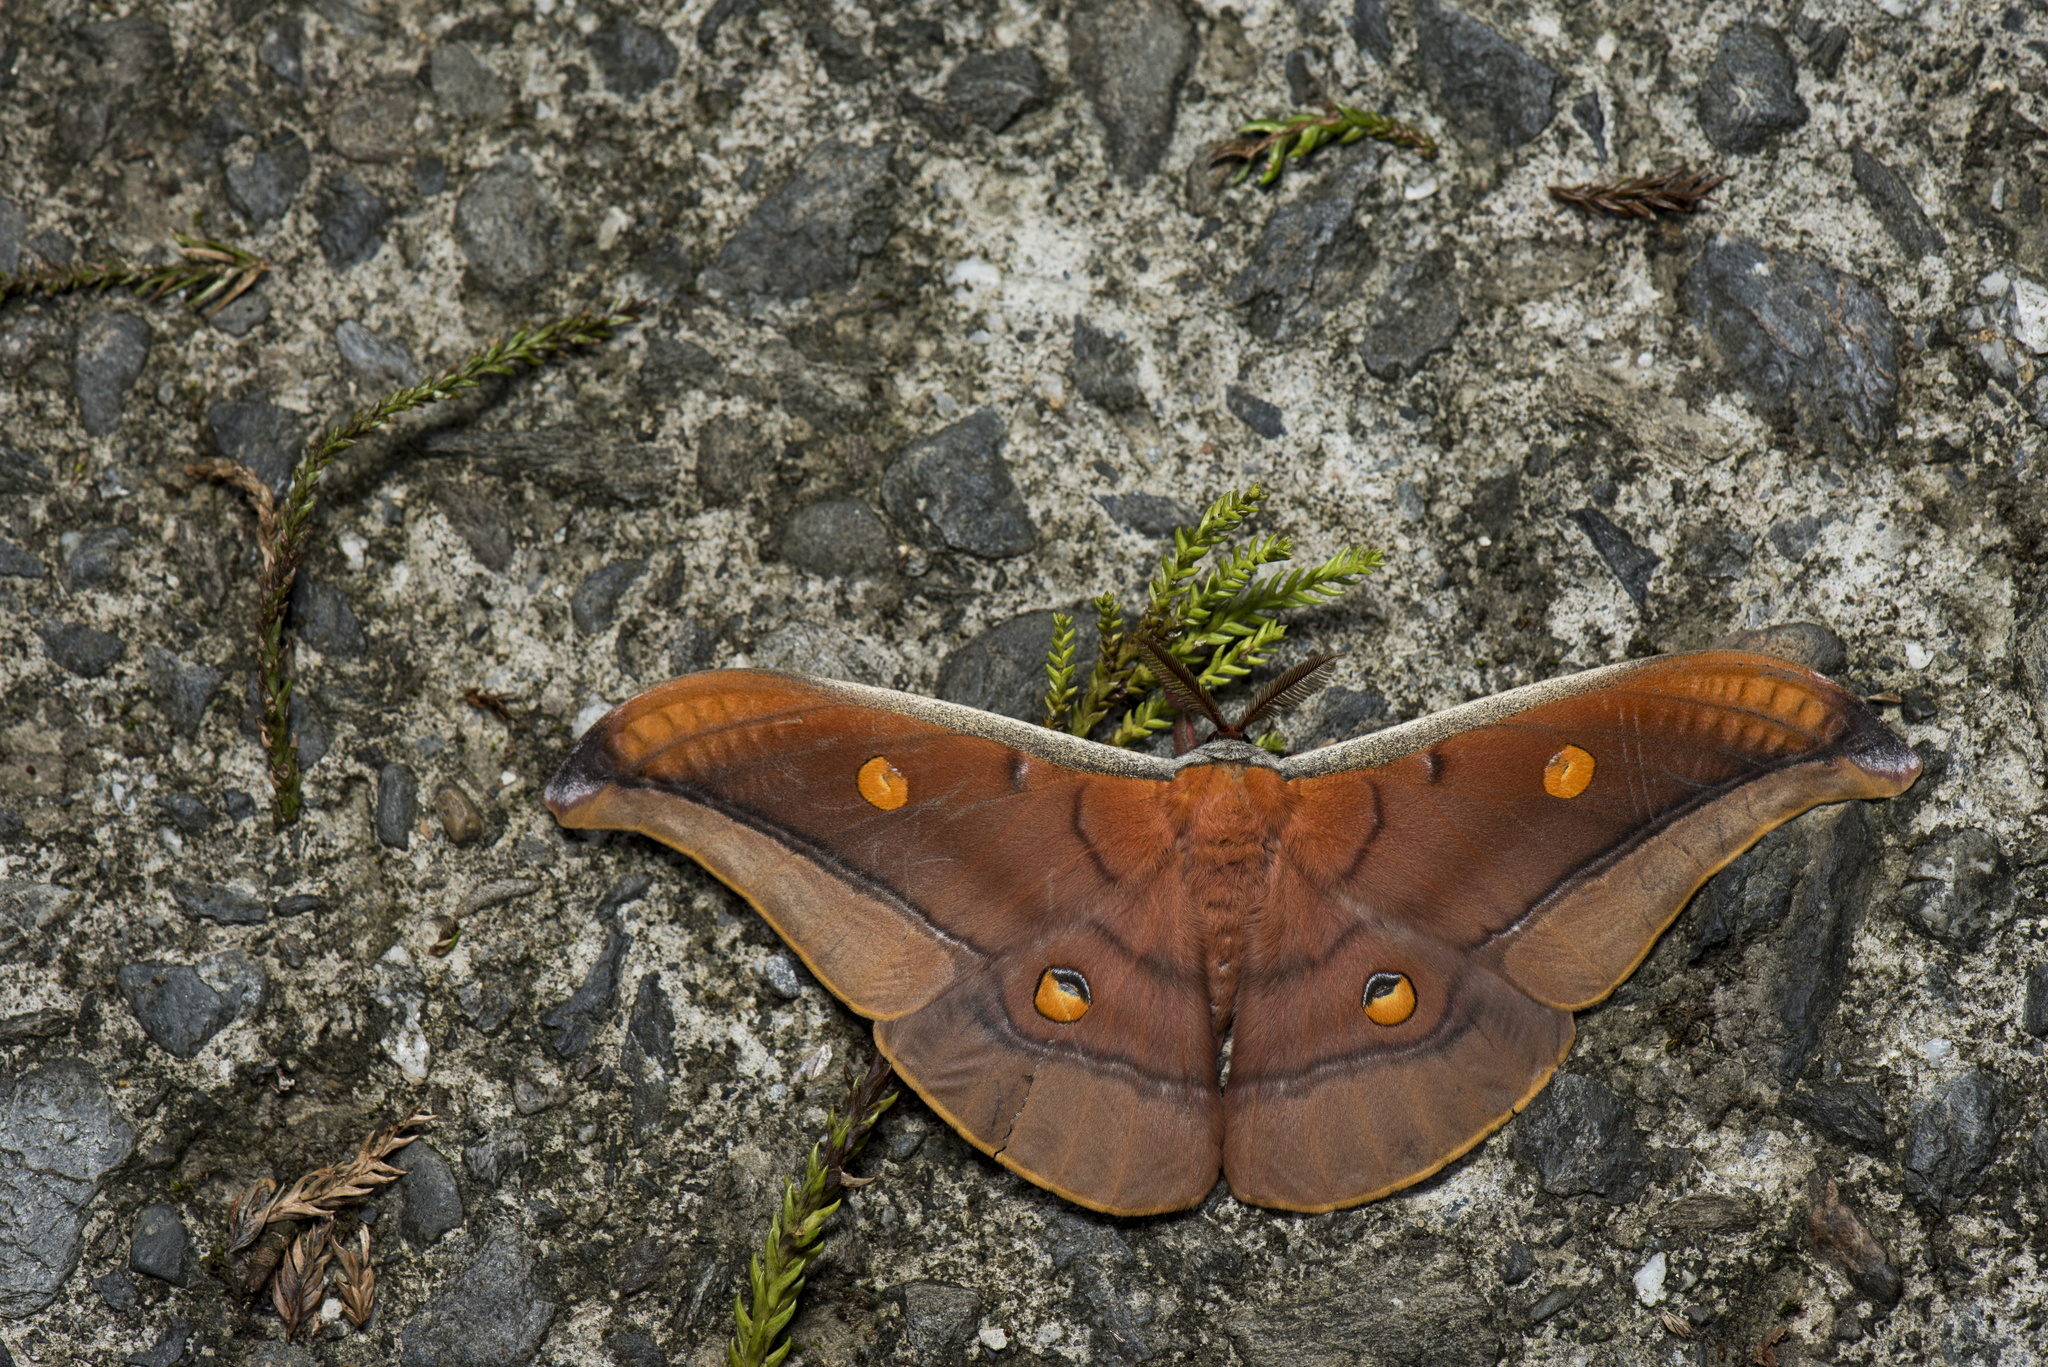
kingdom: Animalia
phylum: Arthropoda
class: Insecta
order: Lepidoptera
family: Saturniidae
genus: Antheraea
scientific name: Antheraea formosana
